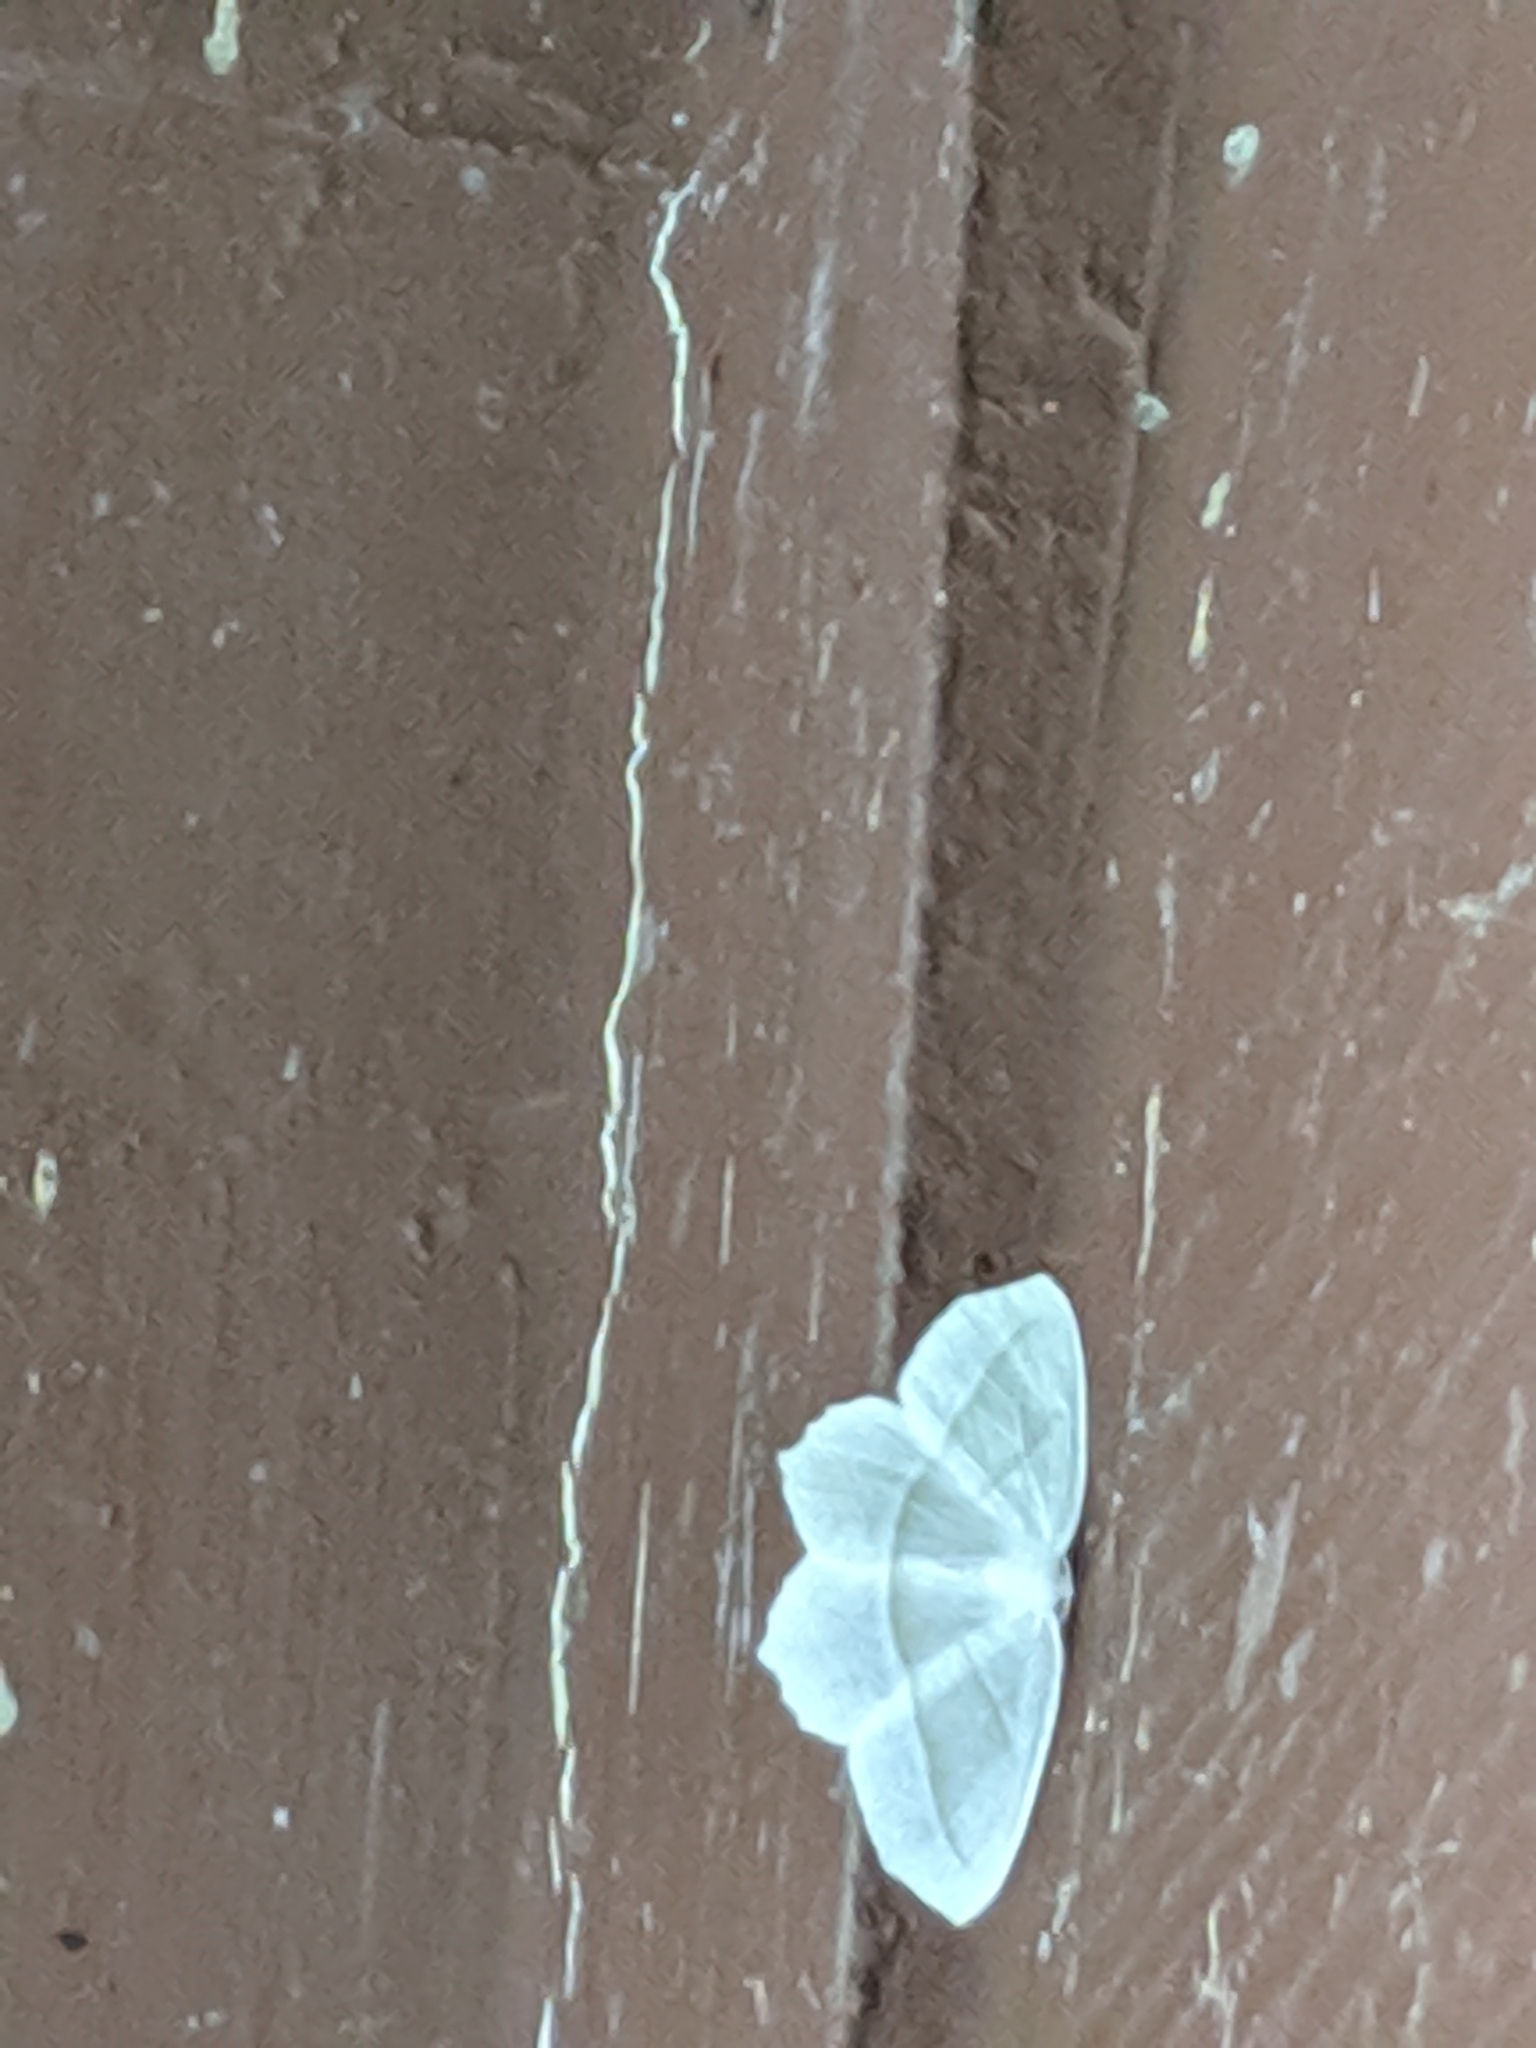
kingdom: Animalia
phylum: Arthropoda
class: Insecta
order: Lepidoptera
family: Geometridae
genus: Campaea
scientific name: Campaea perlata
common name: Fringed looper
